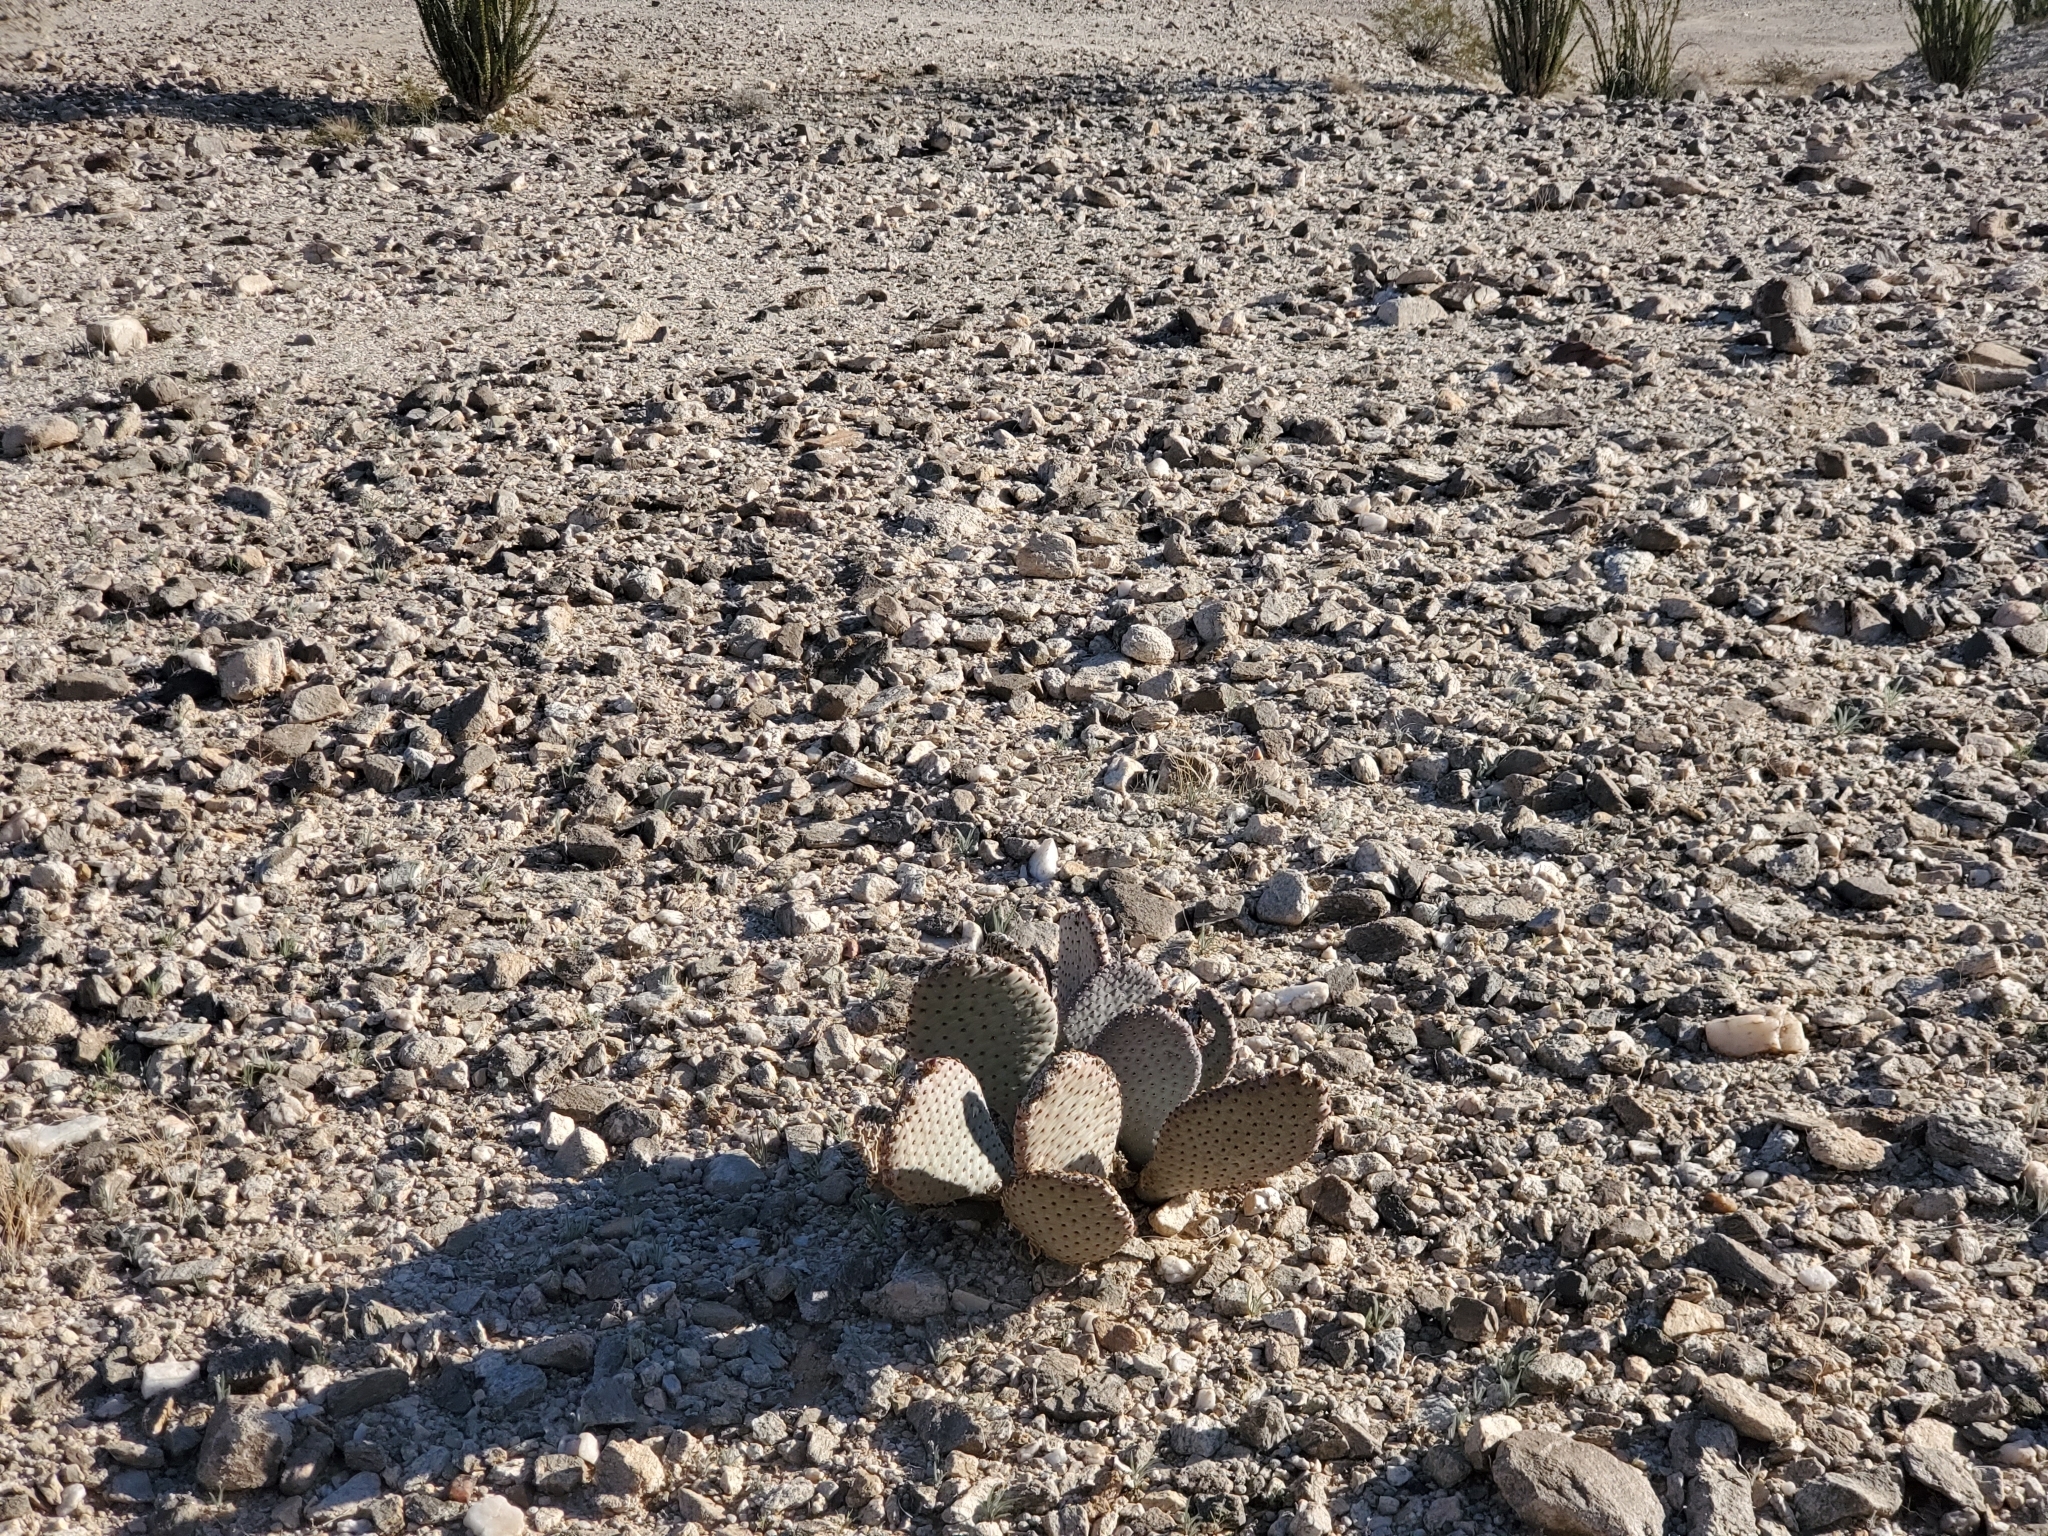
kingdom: Plantae
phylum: Tracheophyta
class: Magnoliopsida
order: Caryophyllales
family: Cactaceae
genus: Opuntia
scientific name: Opuntia basilaris
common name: Beavertail prickly-pear
